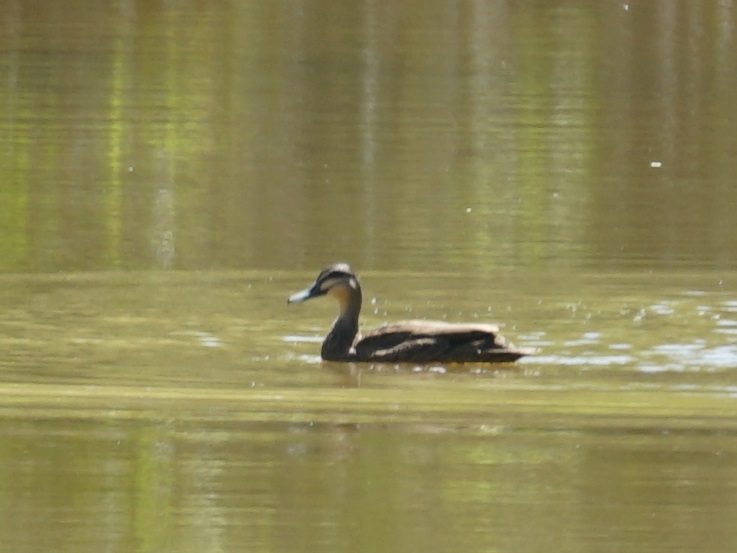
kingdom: Animalia
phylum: Chordata
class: Aves
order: Anseriformes
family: Anatidae
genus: Anas
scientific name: Anas superciliosa
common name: Pacific black duck
